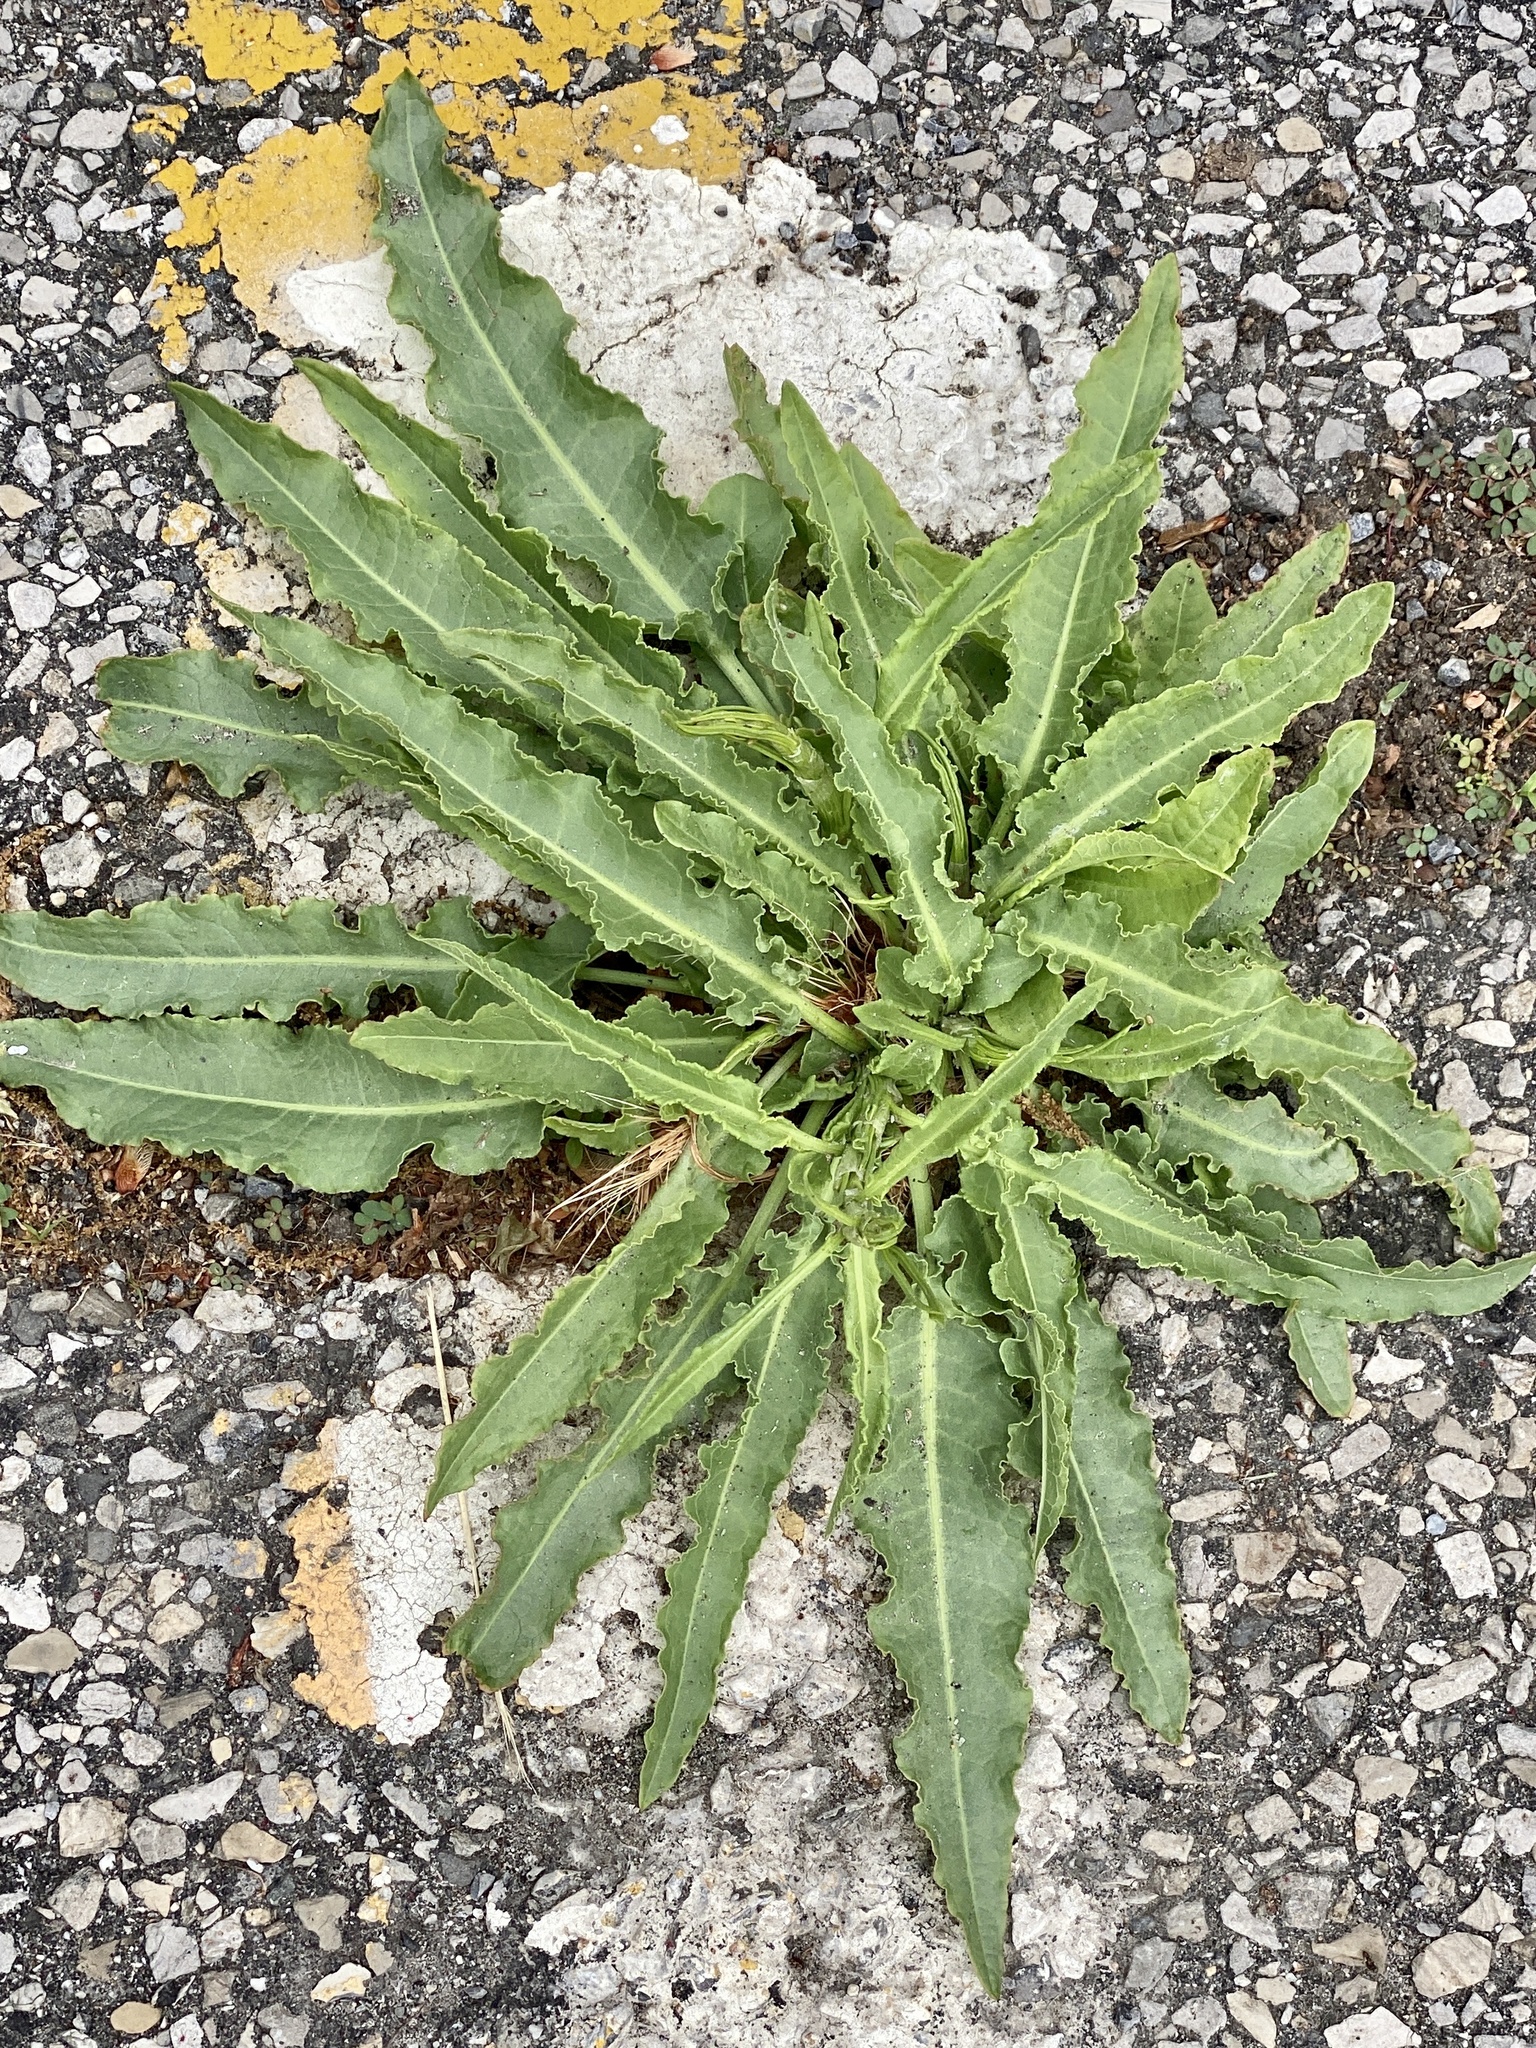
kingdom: Plantae
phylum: Tracheophyta
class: Magnoliopsida
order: Caryophyllales
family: Polygonaceae
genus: Rumex
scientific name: Rumex crispus
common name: Curled dock
